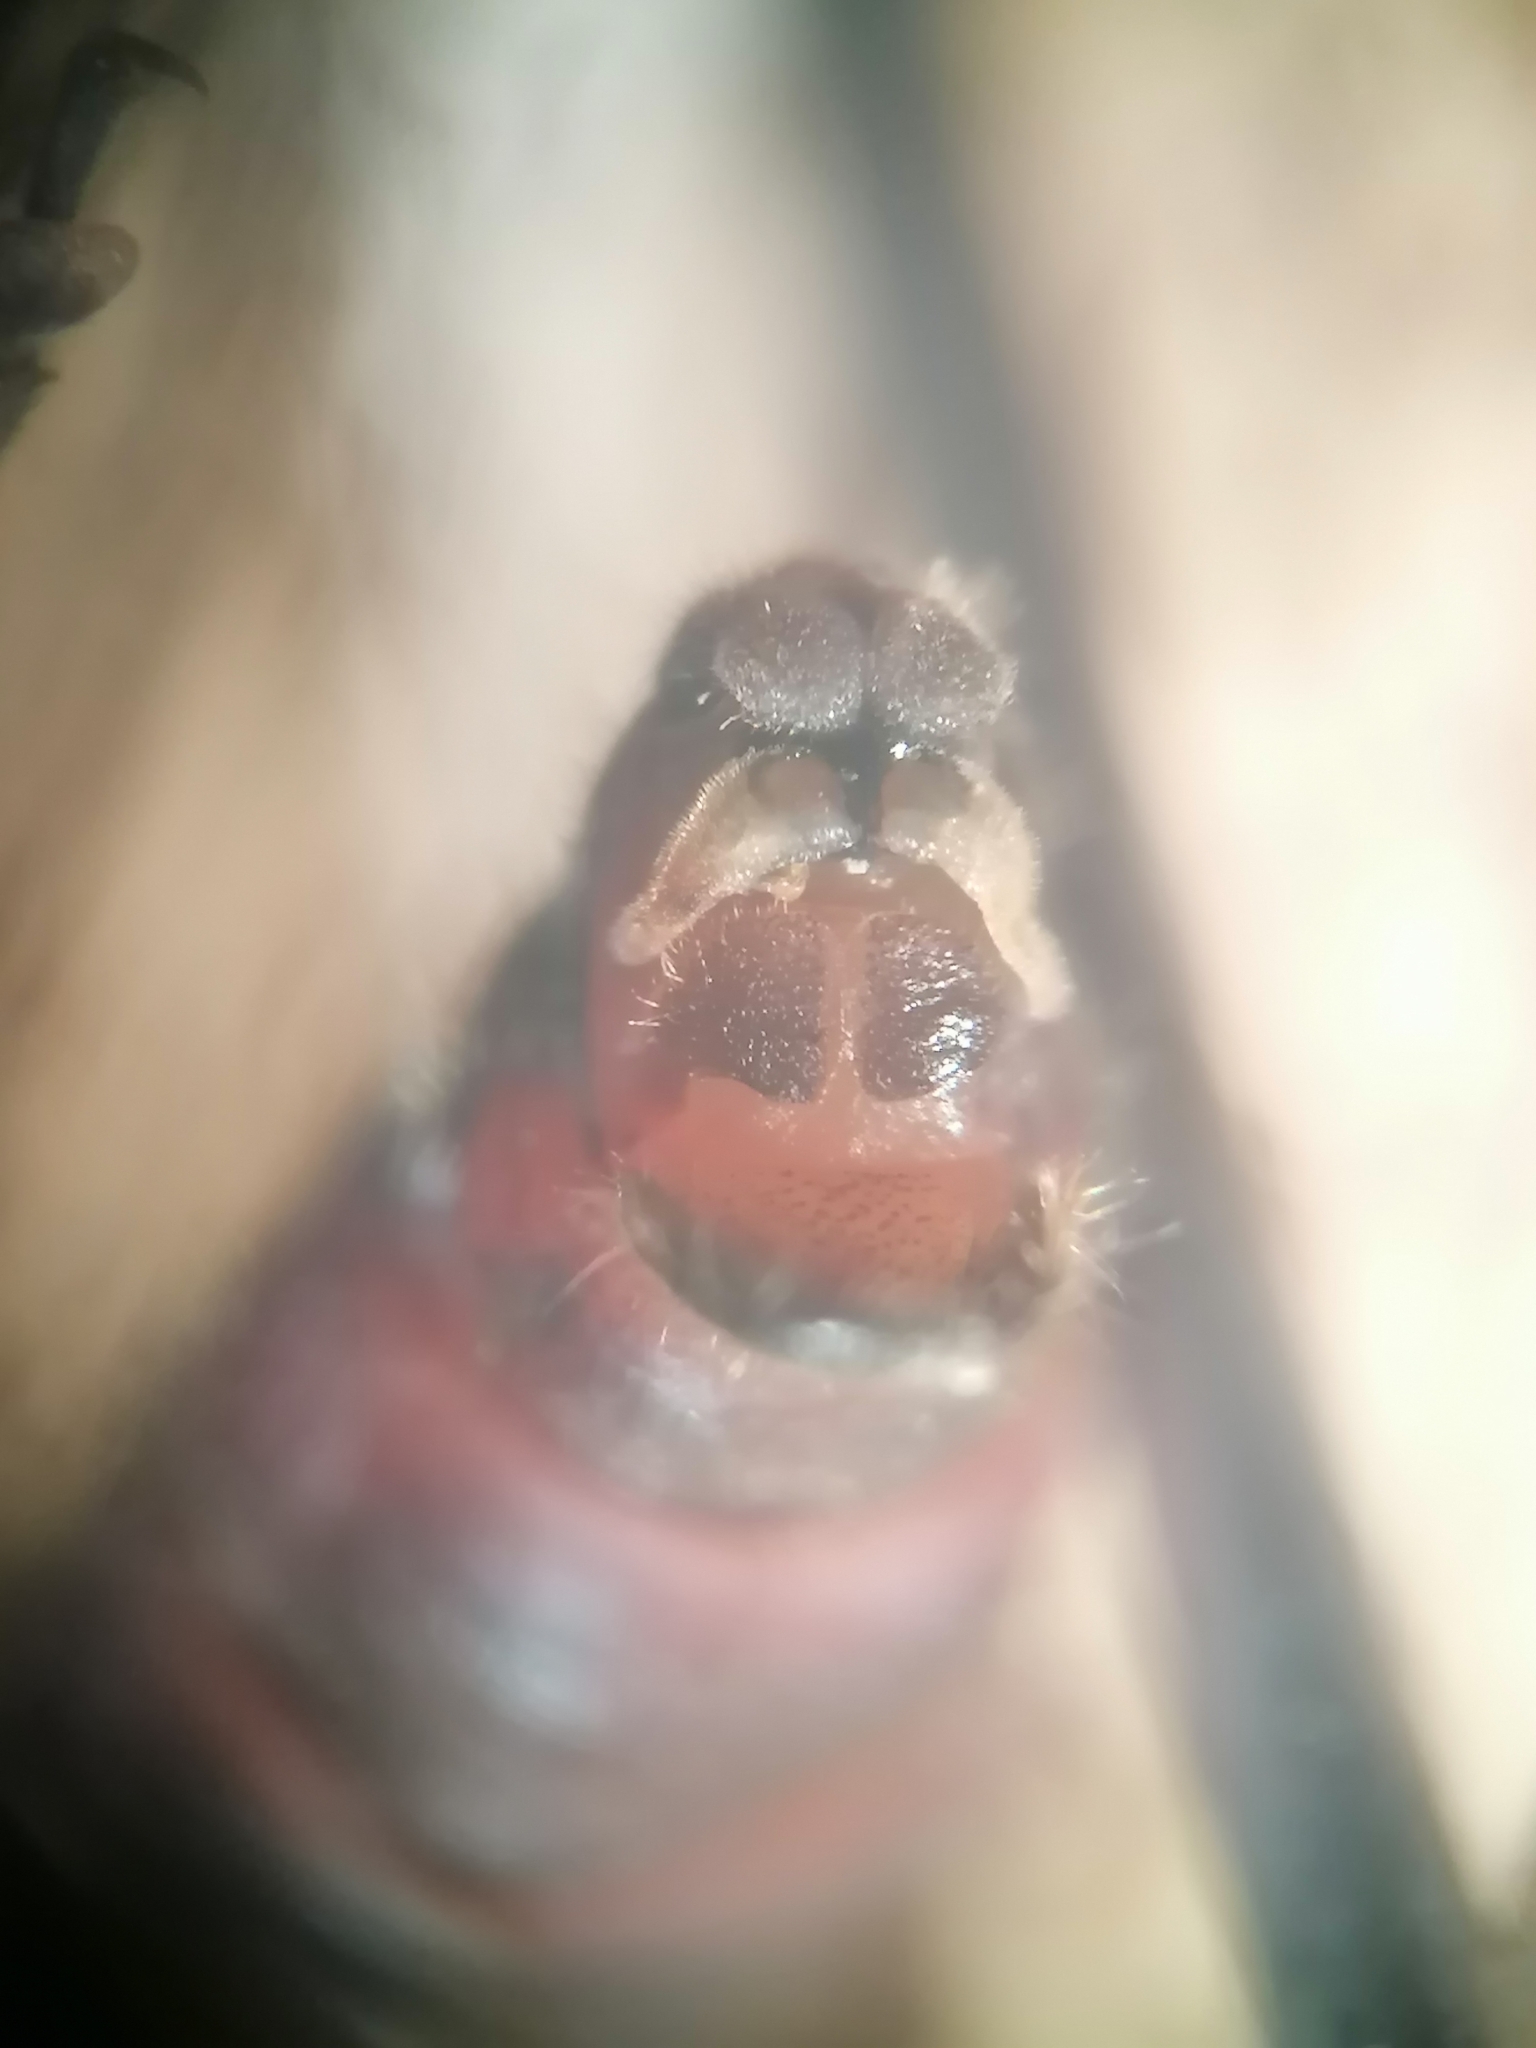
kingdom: Animalia
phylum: Arthropoda
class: Insecta
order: Megaloptera
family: Sialidae
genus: Sialis
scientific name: Sialis lutaria
